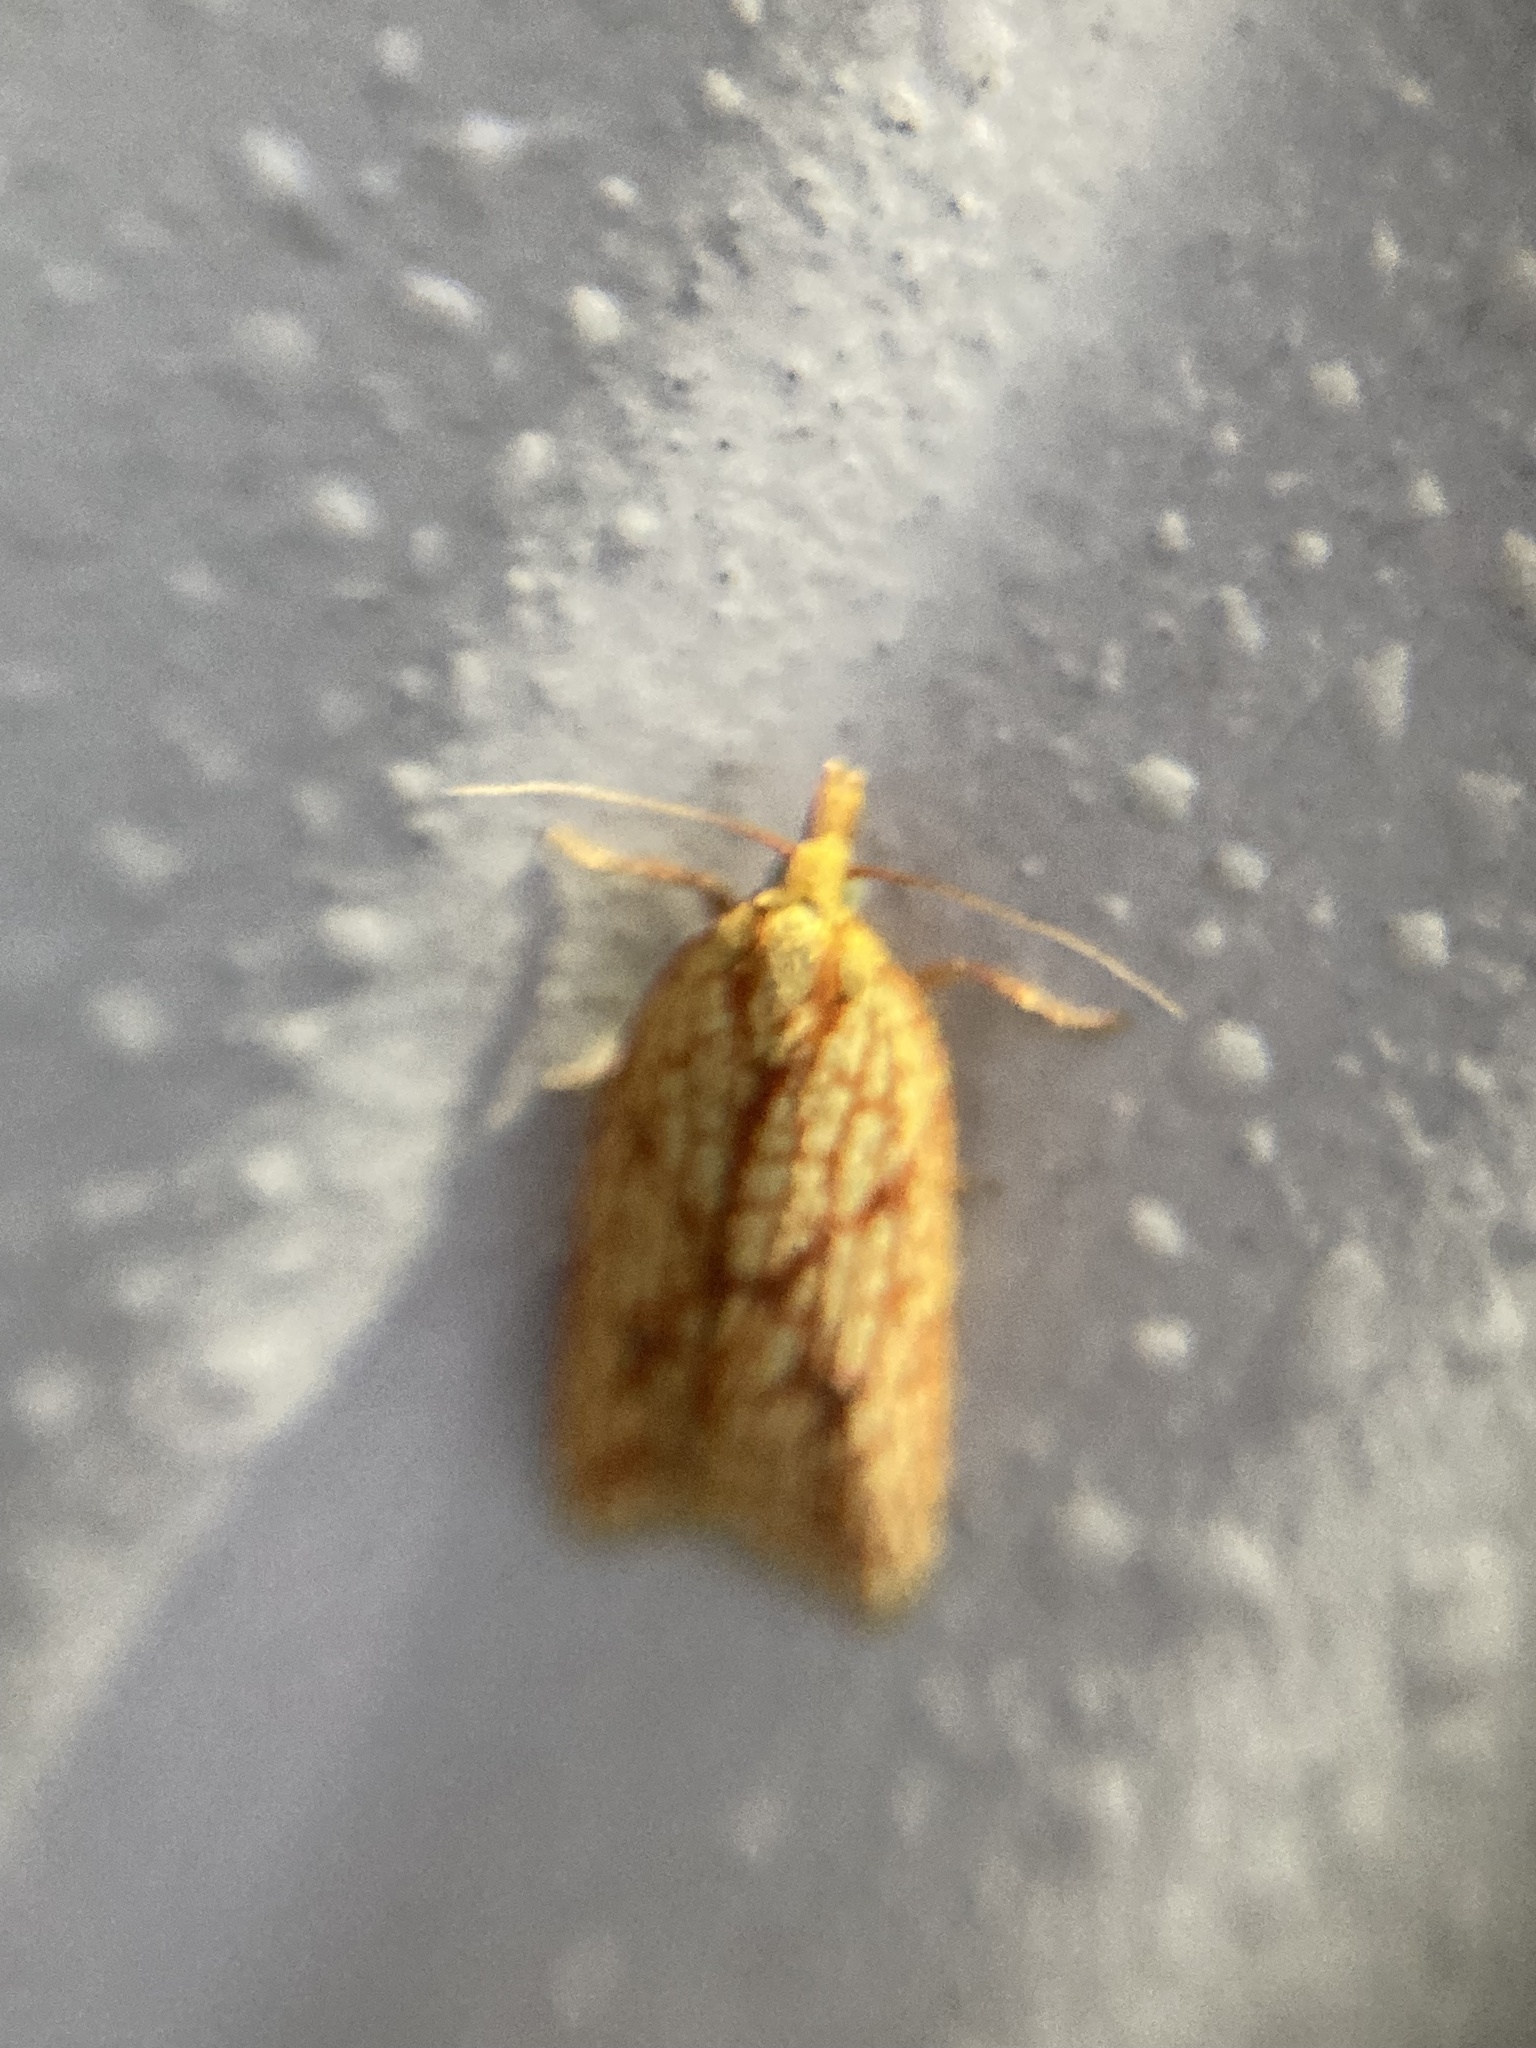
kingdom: Animalia
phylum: Arthropoda
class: Insecta
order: Lepidoptera
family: Tortricidae
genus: Sparganothis
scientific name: Sparganothis sulfureana
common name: Sparganothis fruitworm moth
